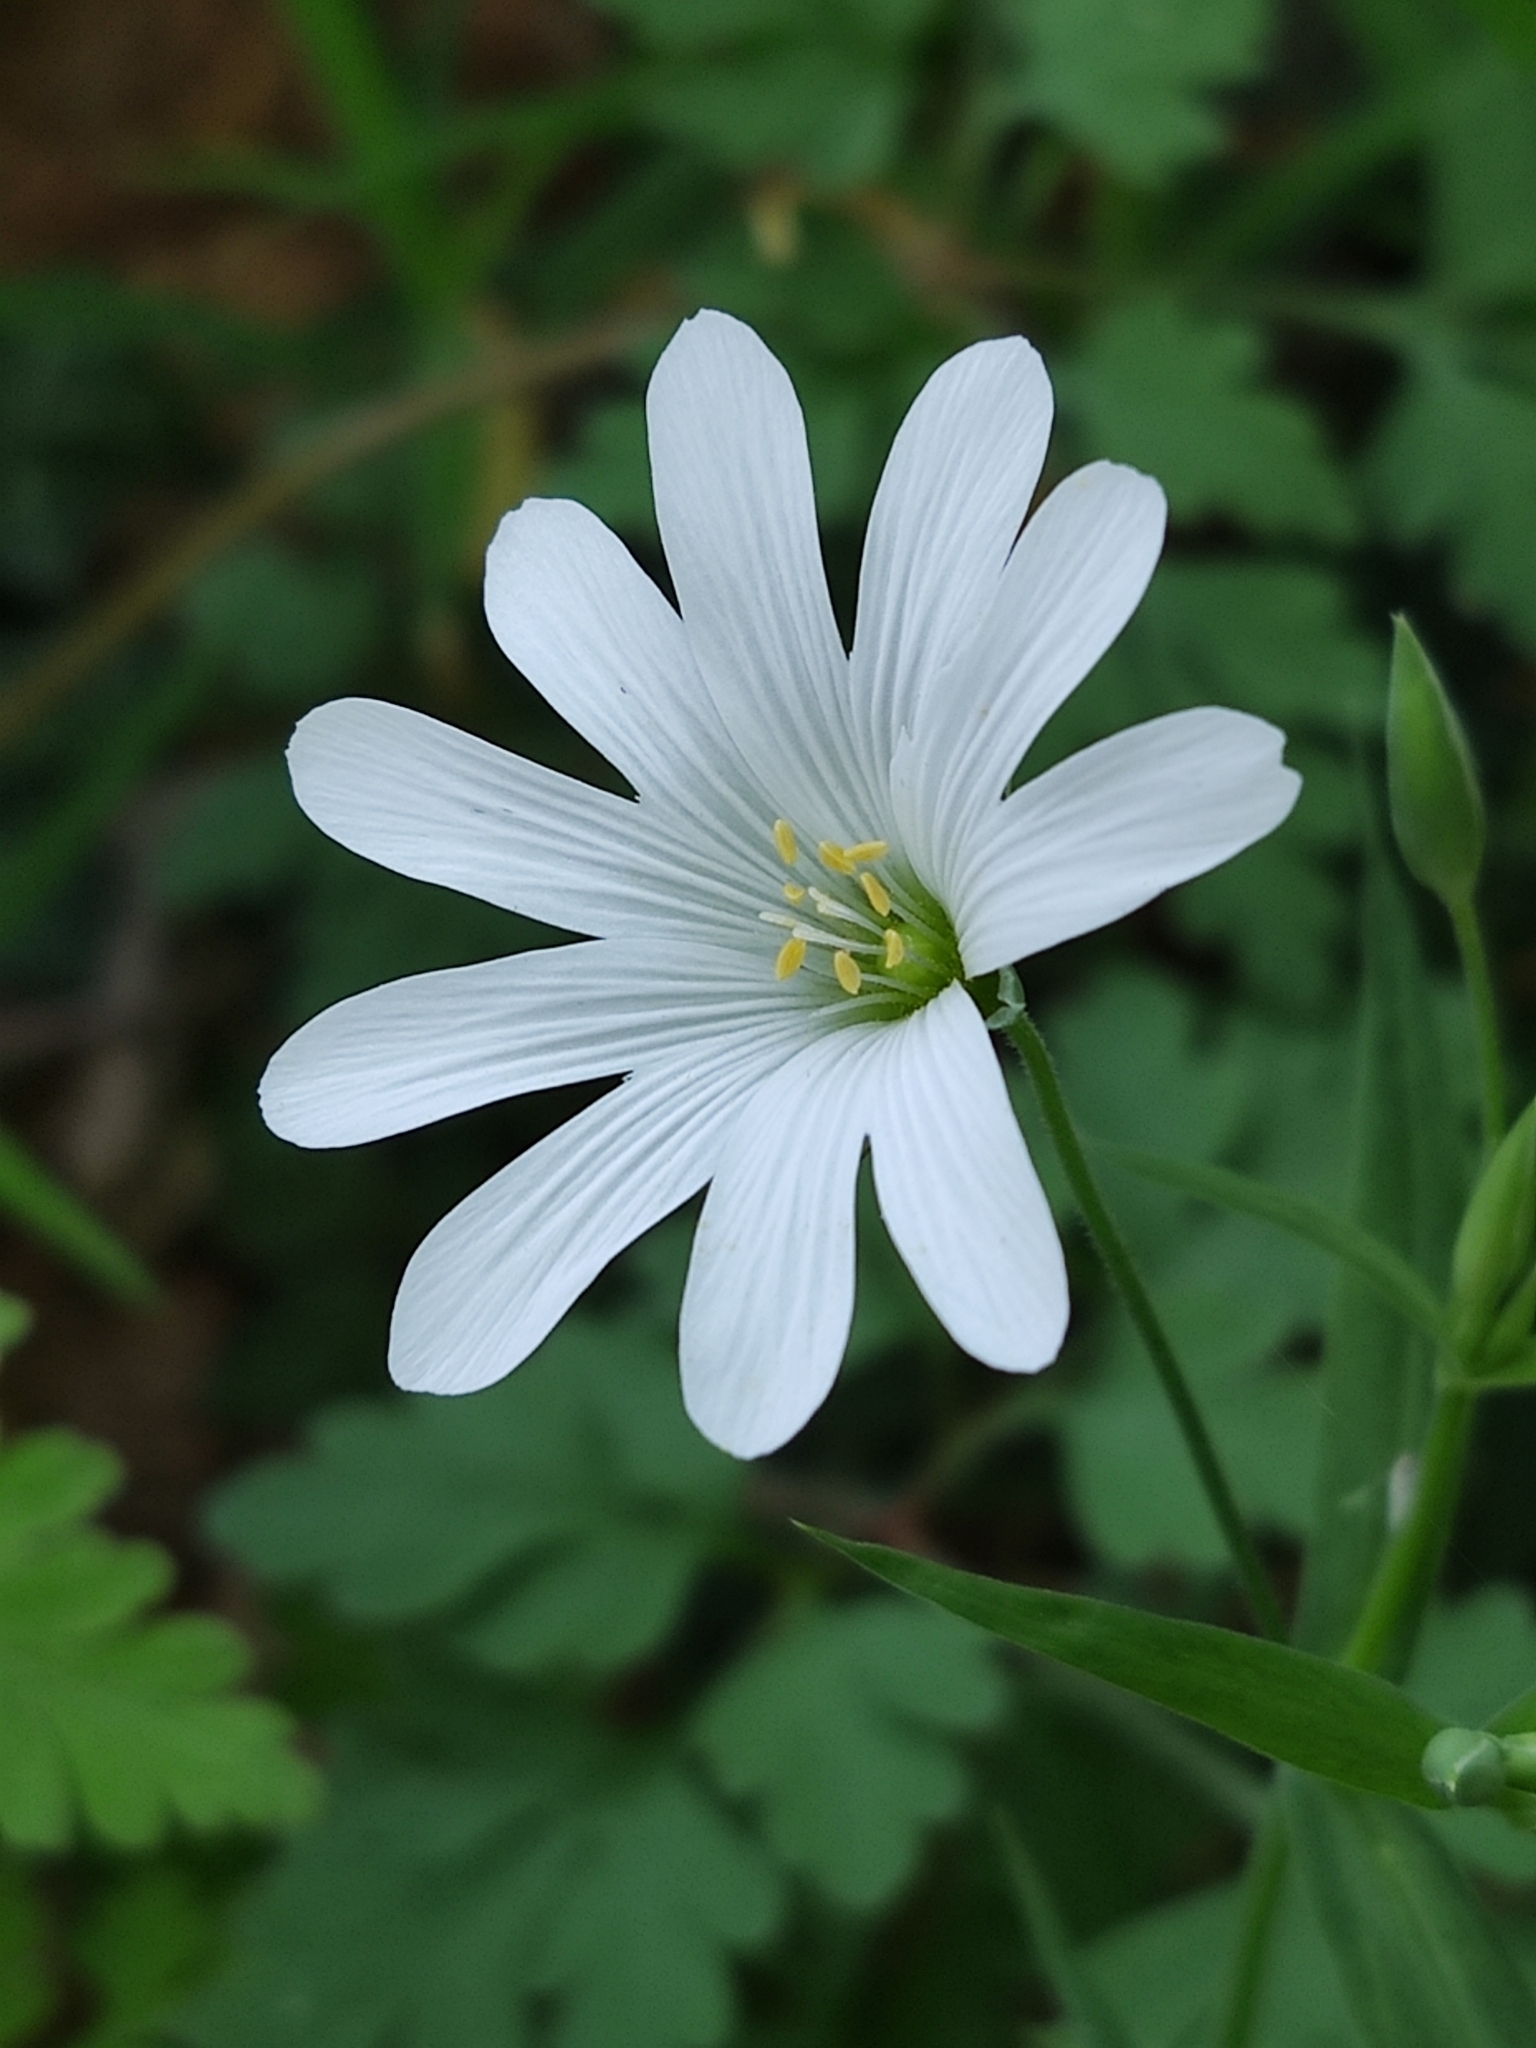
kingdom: Plantae
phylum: Tracheophyta
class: Magnoliopsida
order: Caryophyllales
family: Caryophyllaceae
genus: Rabelera
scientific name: Rabelera holostea
